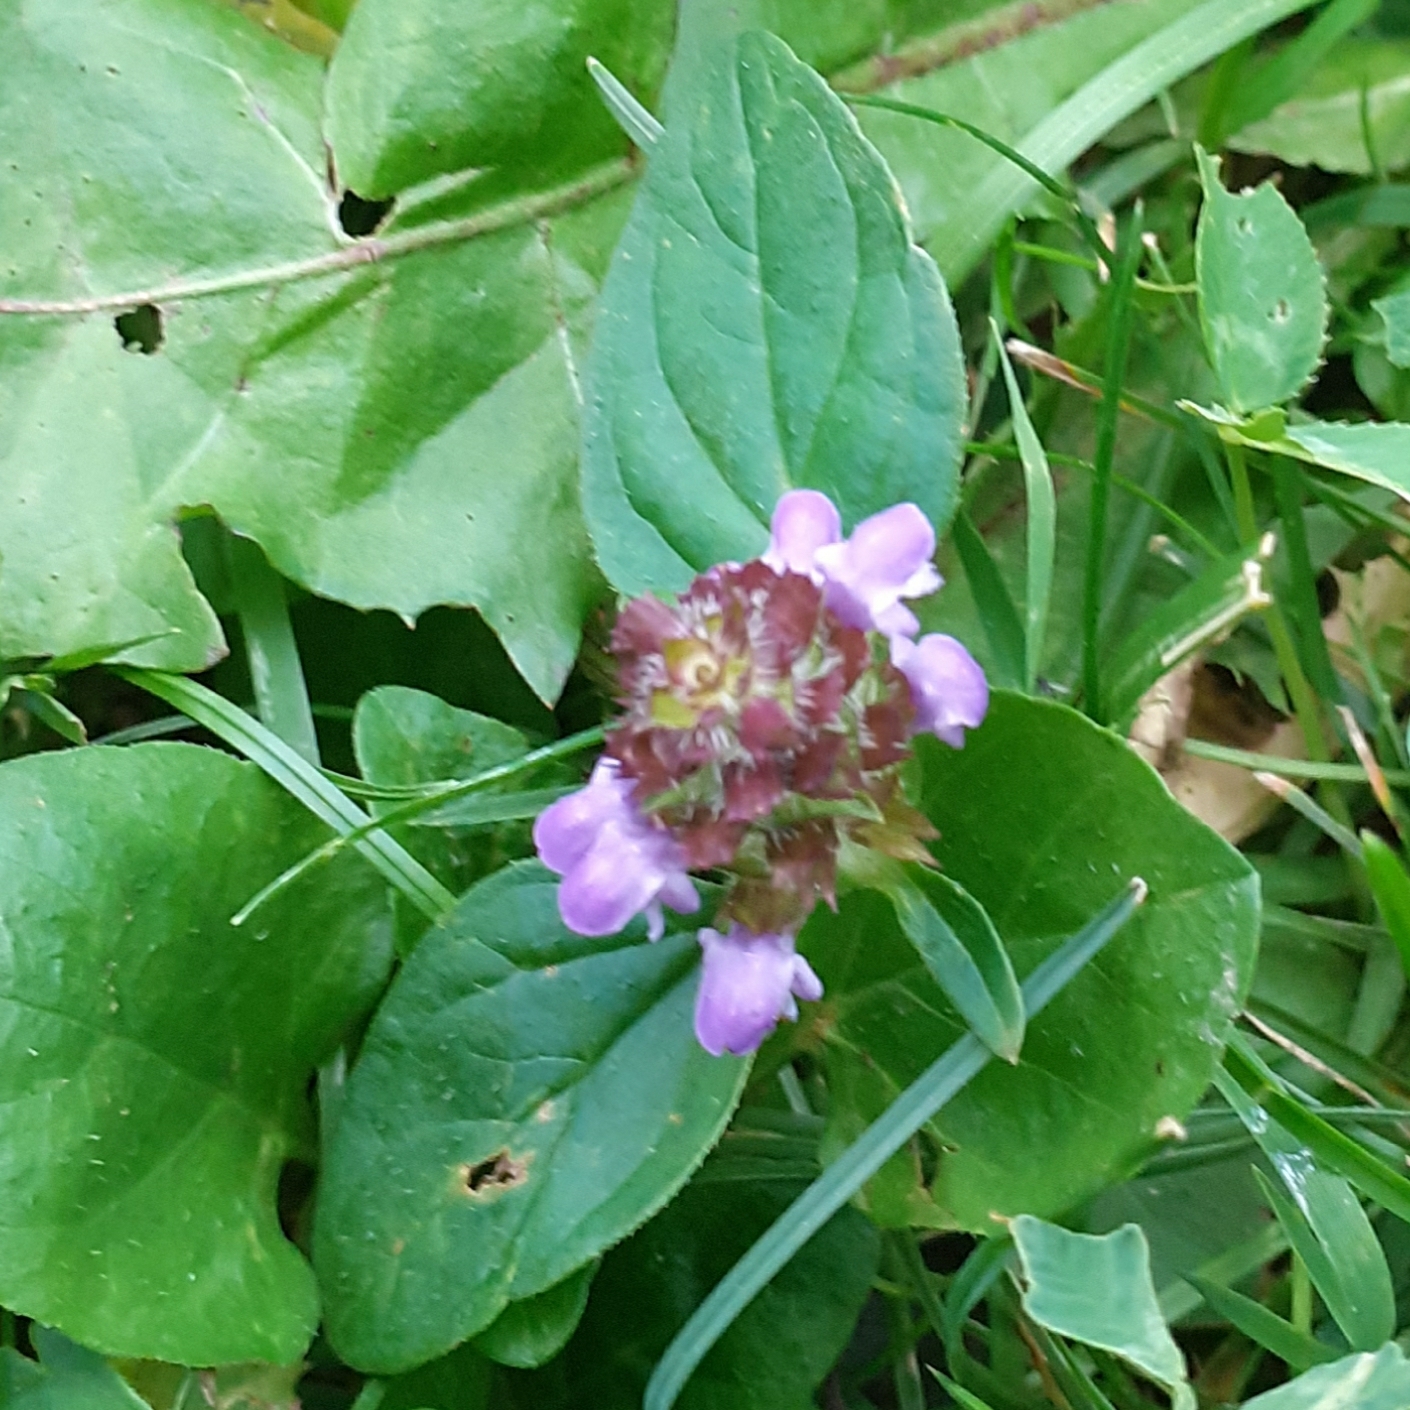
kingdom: Plantae
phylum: Tracheophyta
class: Magnoliopsida
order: Lamiales
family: Lamiaceae
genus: Prunella
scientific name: Prunella vulgaris
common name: Heal-all
